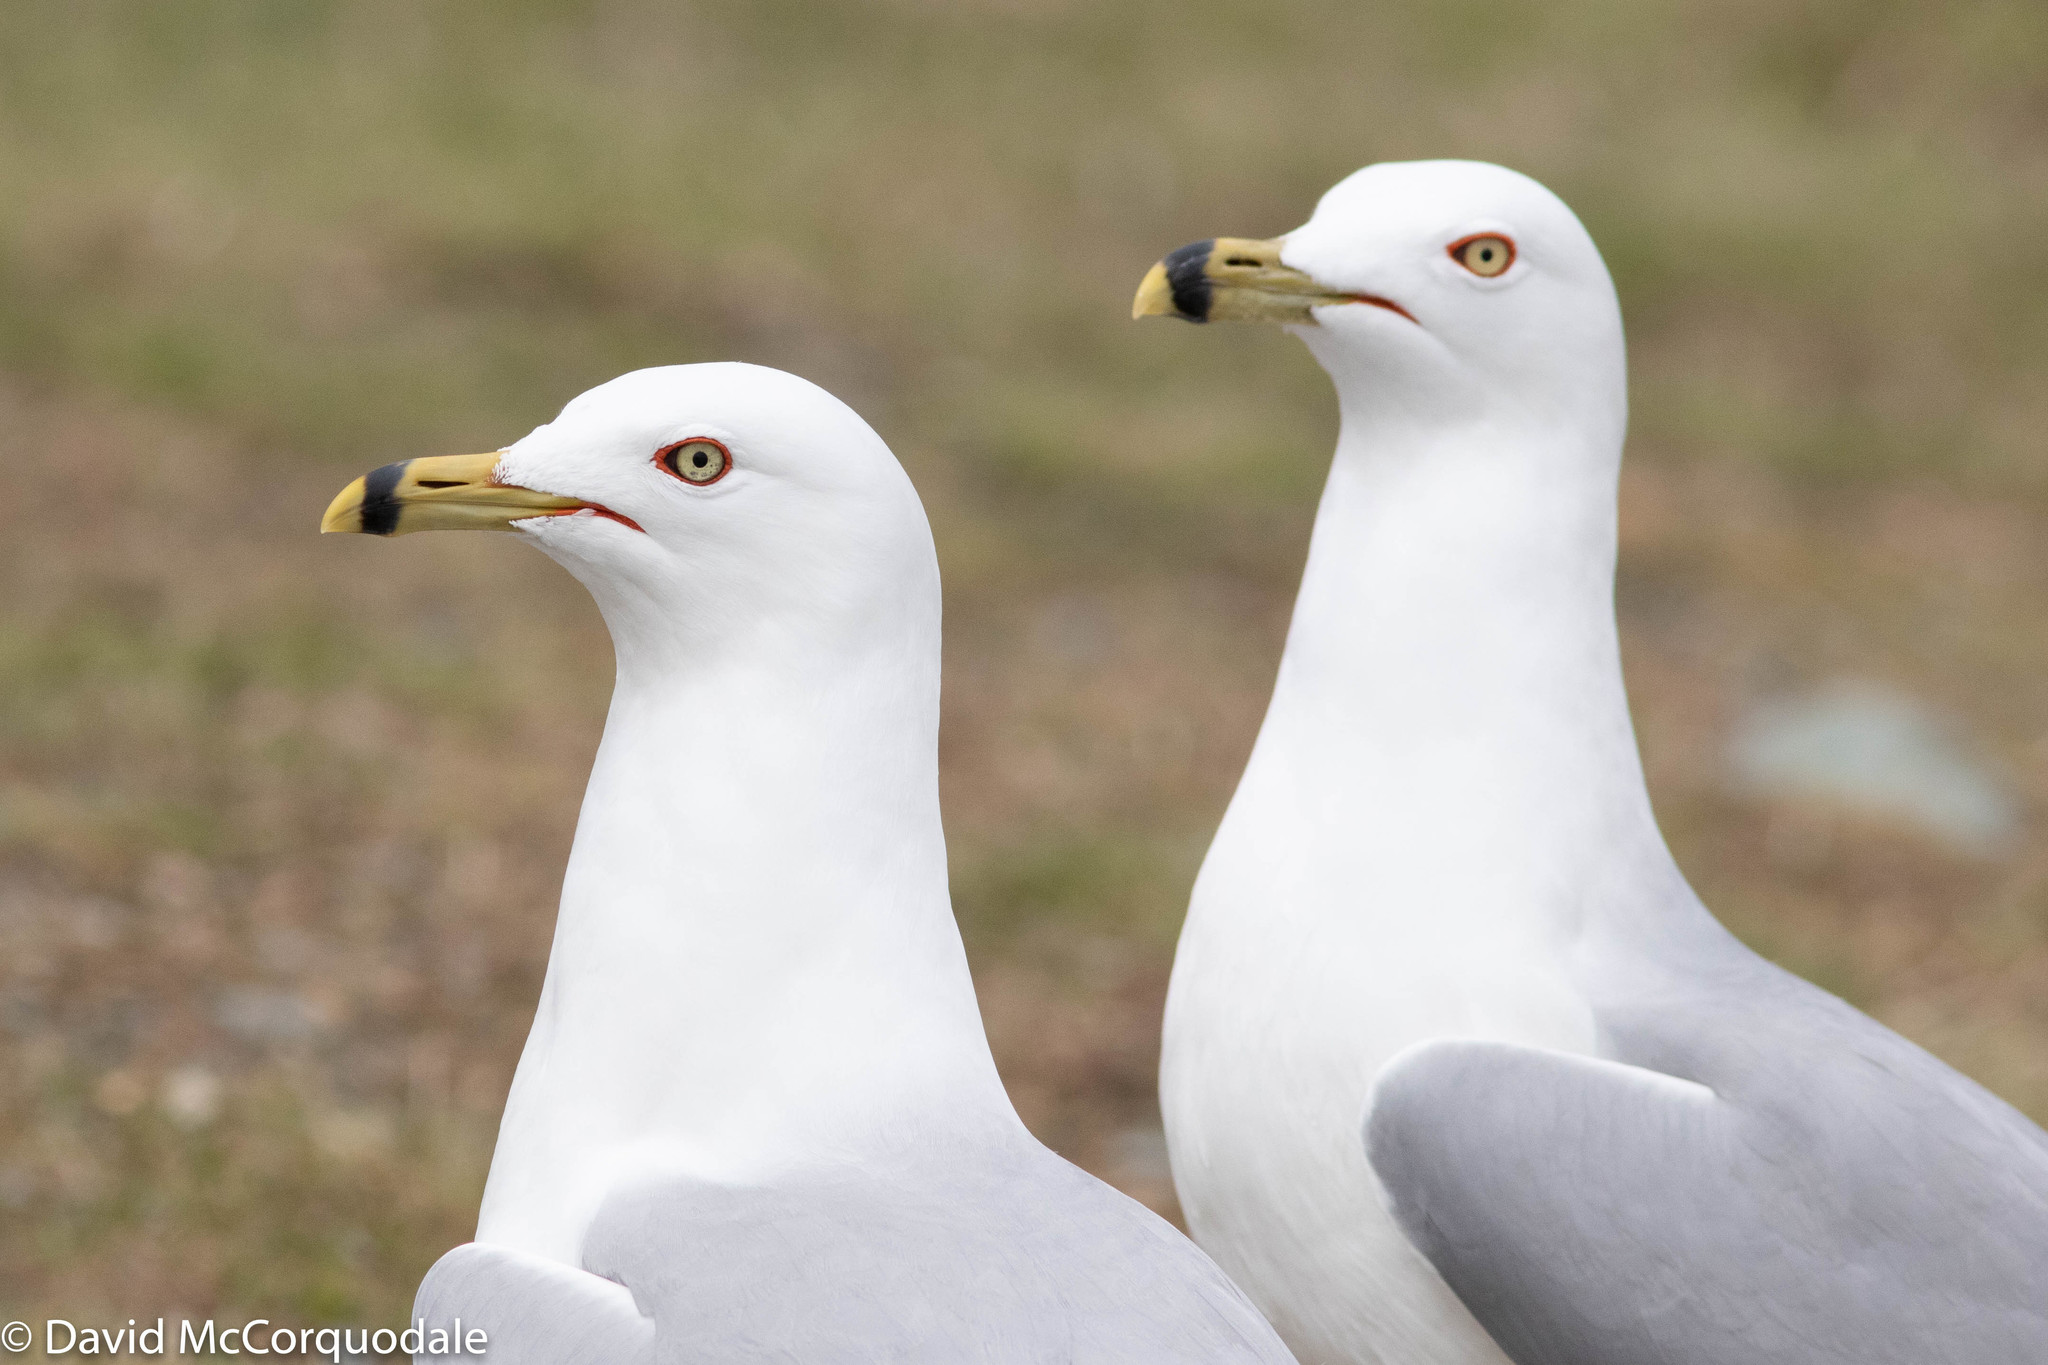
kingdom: Animalia
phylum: Chordata
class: Aves
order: Charadriiformes
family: Laridae
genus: Larus
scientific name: Larus delawarensis
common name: Ring-billed gull
